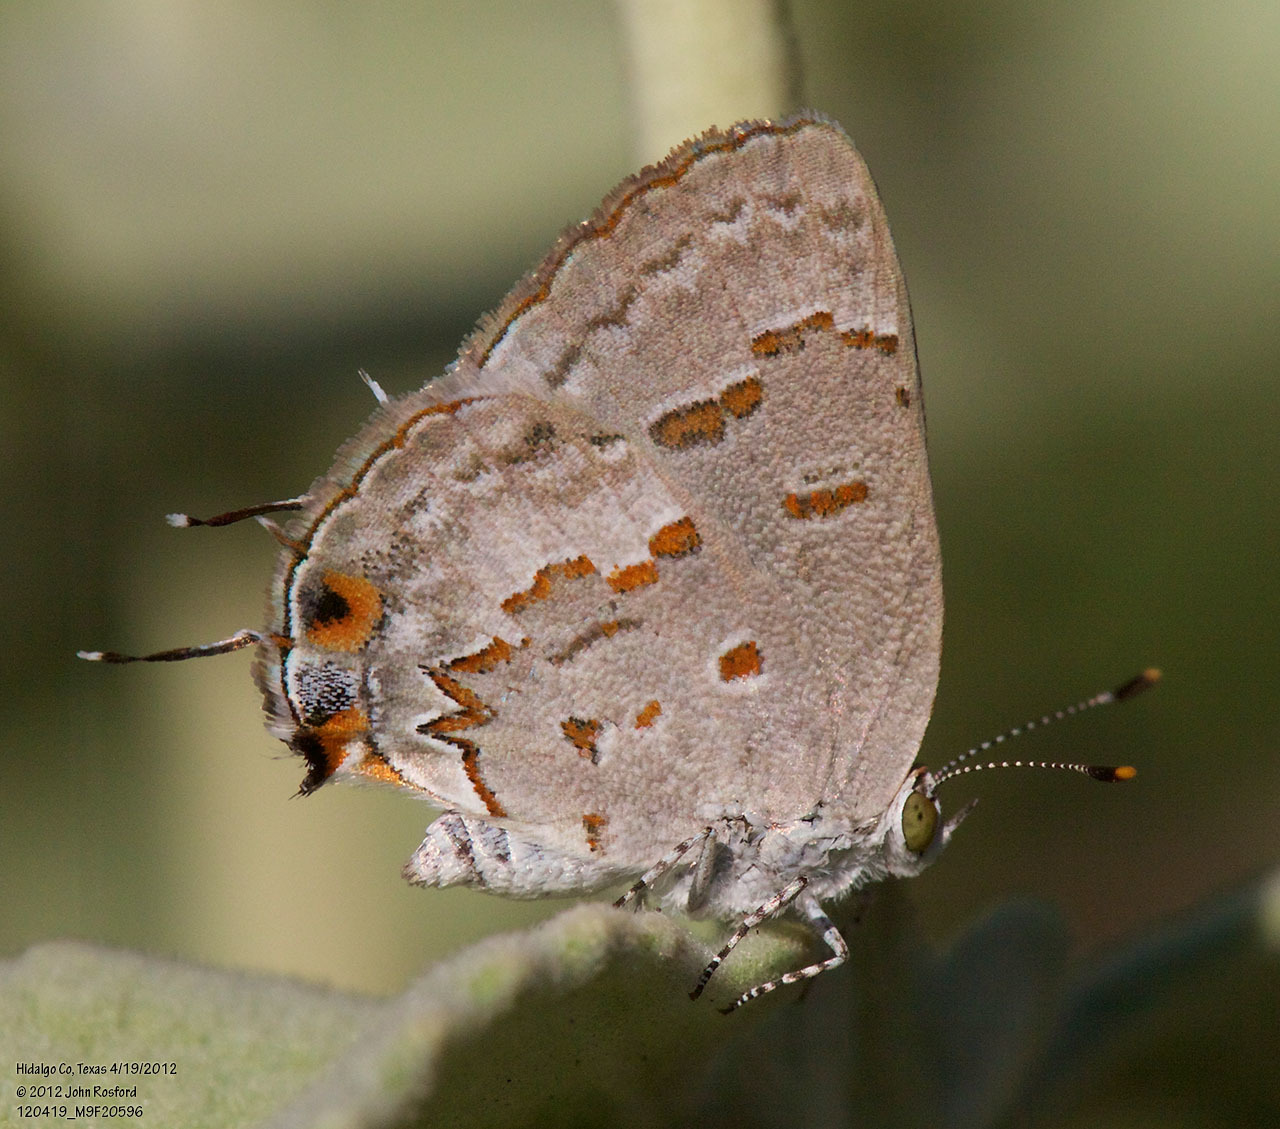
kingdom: Animalia
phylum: Arthropoda
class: Insecta
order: Lepidoptera
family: Lycaenidae
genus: Ministrymon
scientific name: Ministrymon clytie
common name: Clytie ministreak
